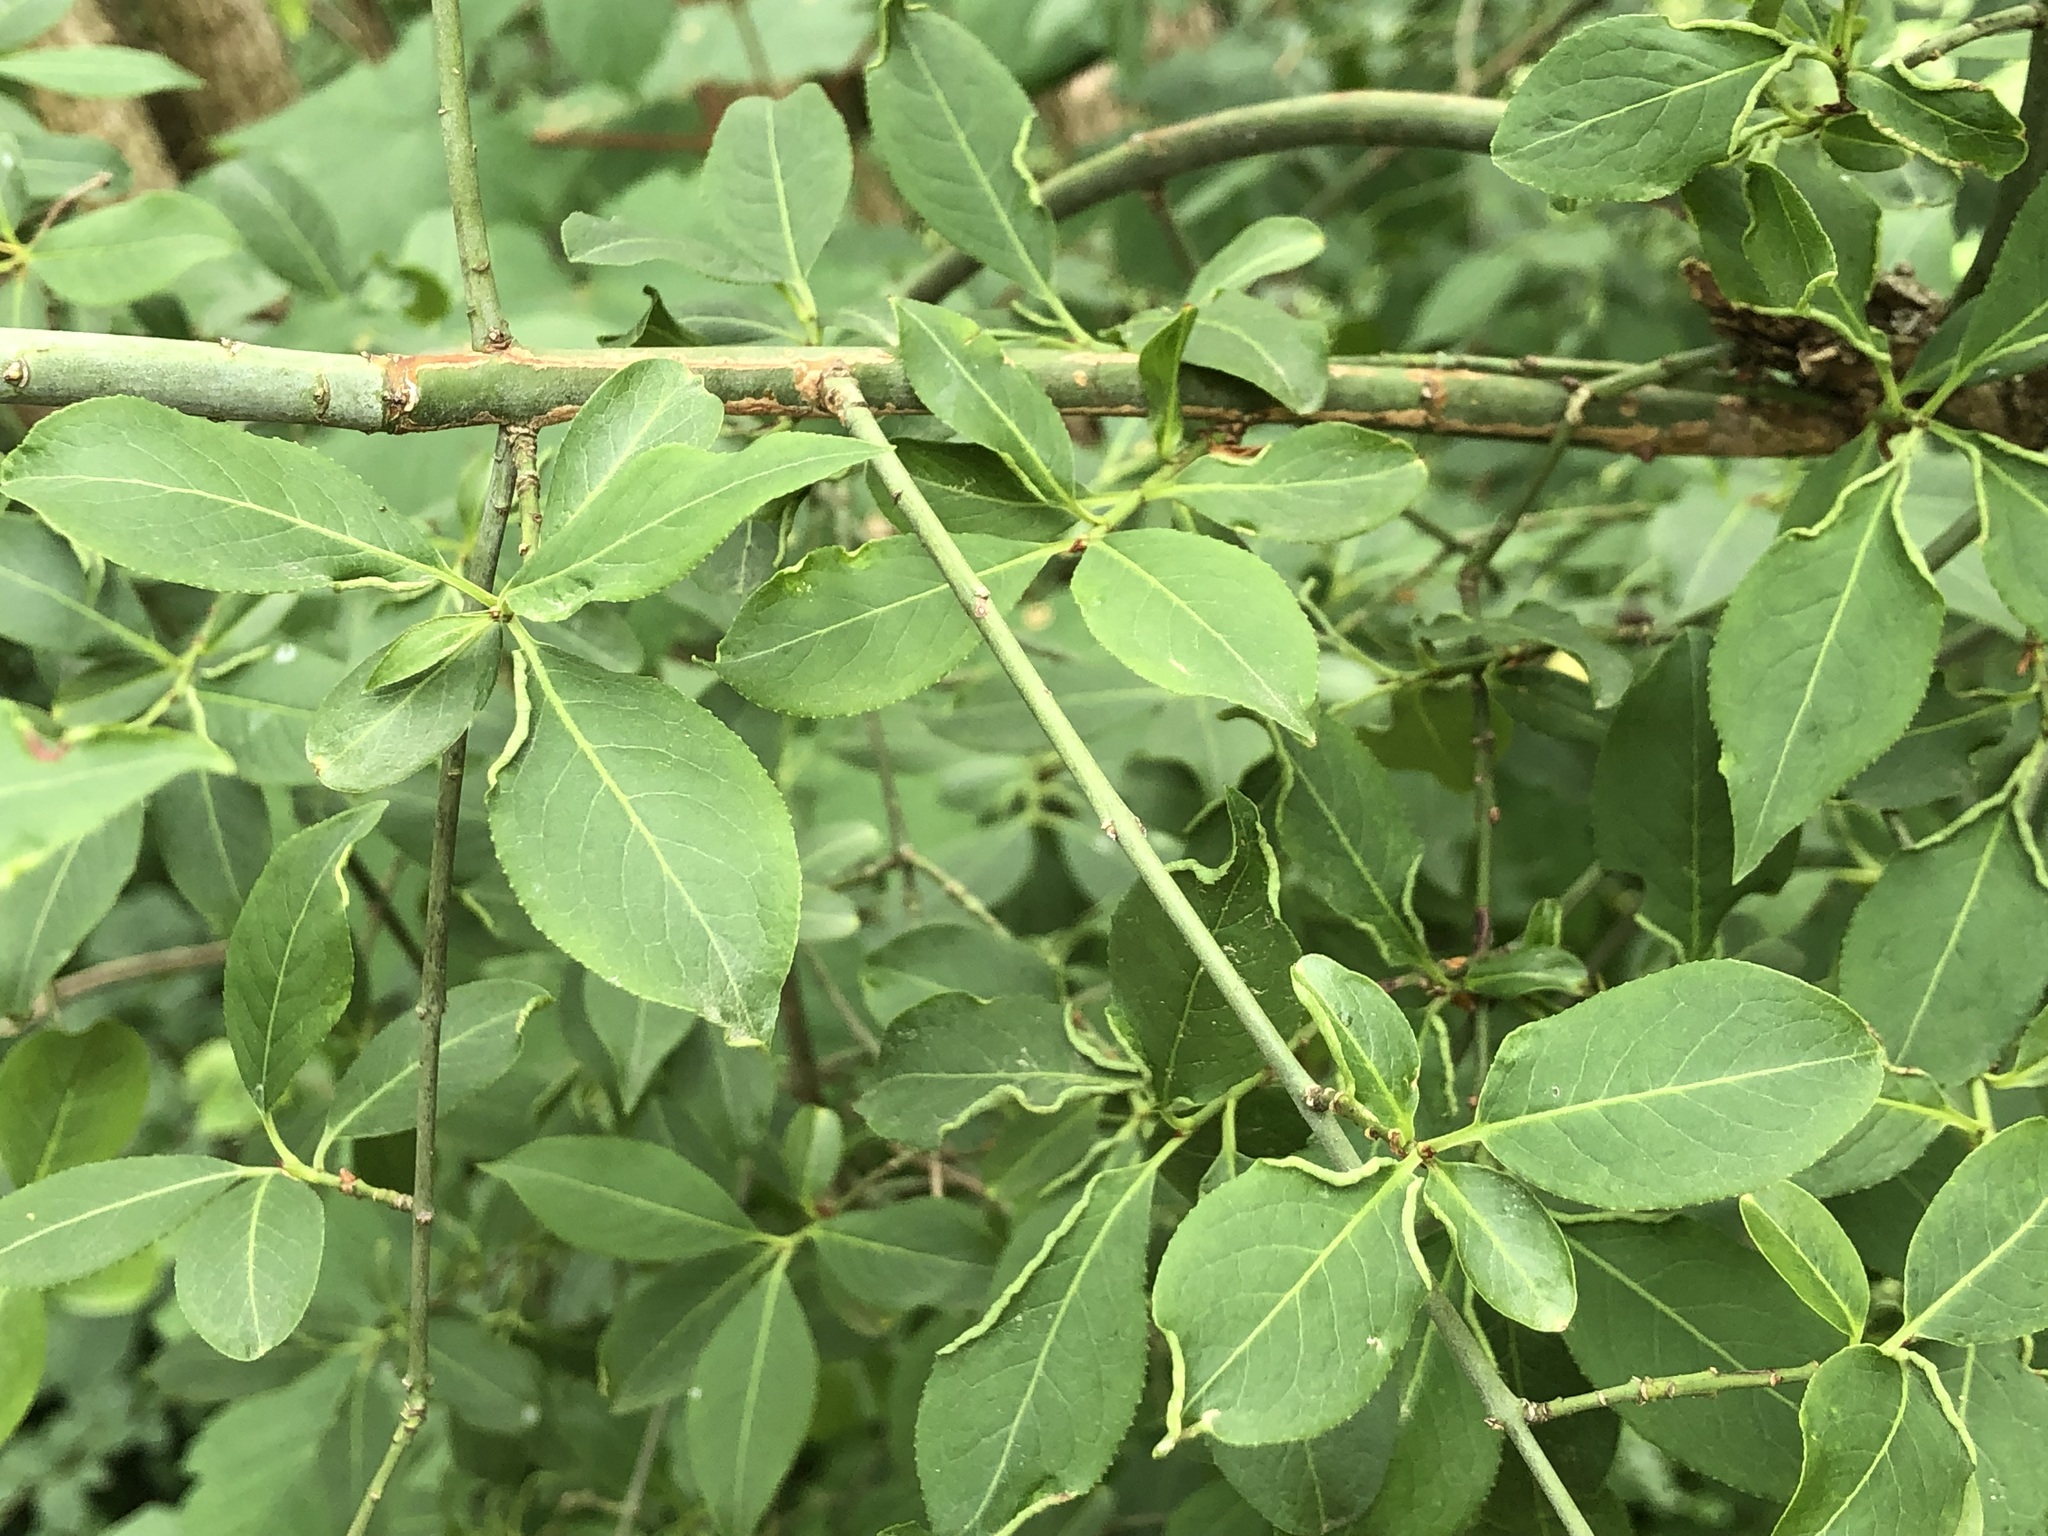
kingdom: Plantae
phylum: Tracheophyta
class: Magnoliopsida
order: Celastrales
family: Celastraceae
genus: Euonymus
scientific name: Euonymus europaeus
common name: Spindle
